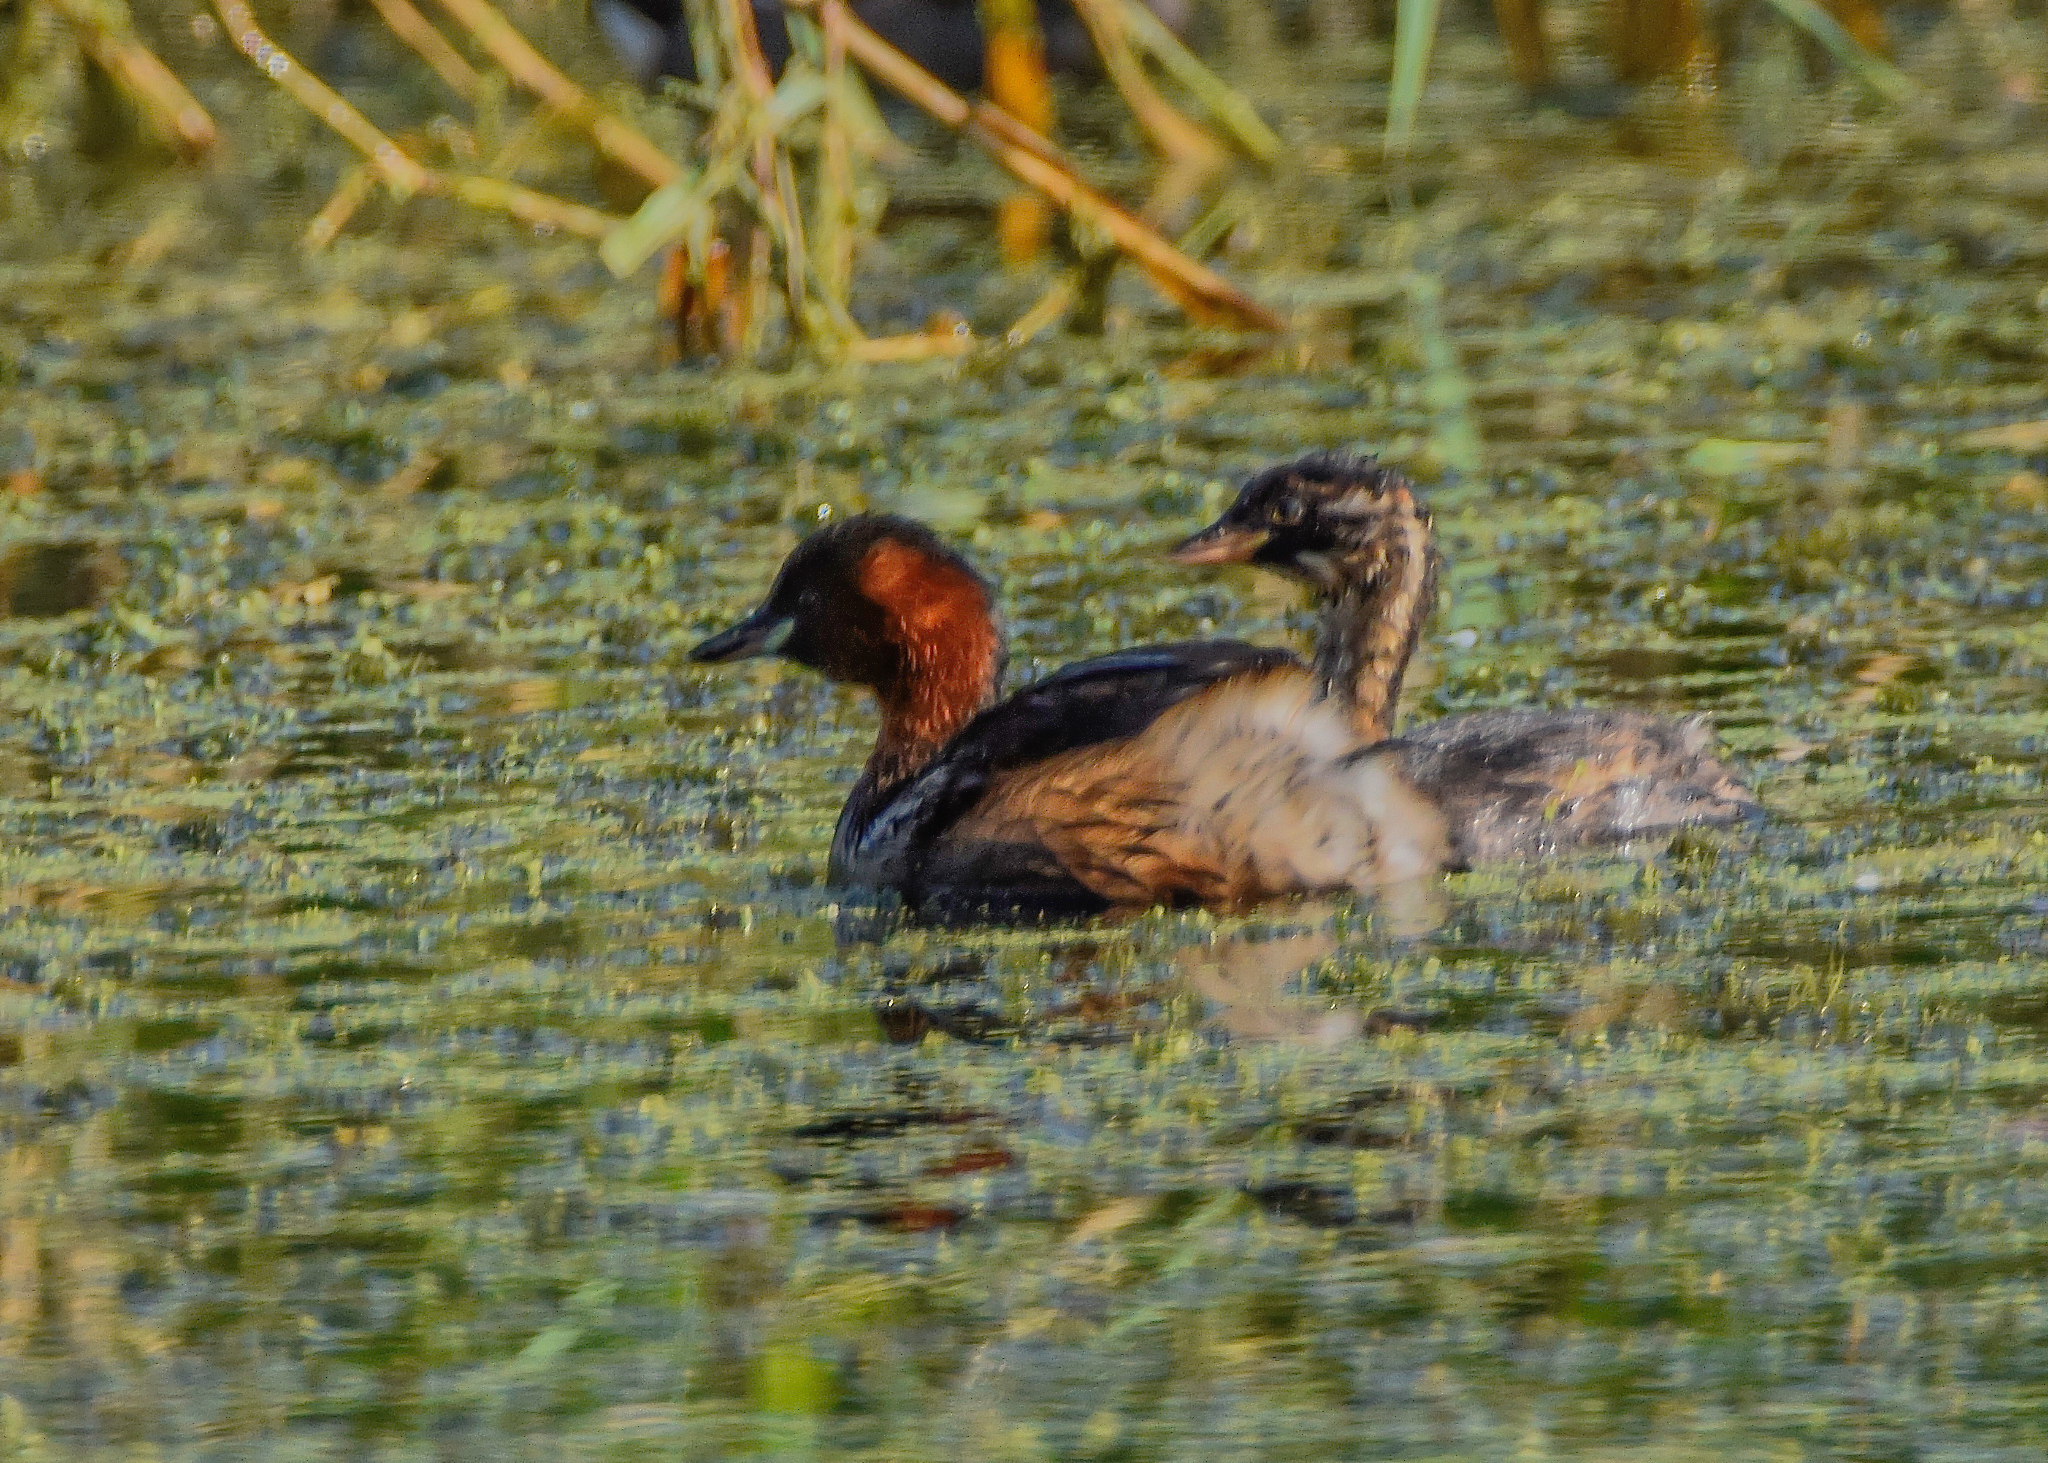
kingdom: Animalia
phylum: Chordata
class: Aves
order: Podicipediformes
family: Podicipedidae
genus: Tachybaptus
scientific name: Tachybaptus ruficollis
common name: Little grebe
